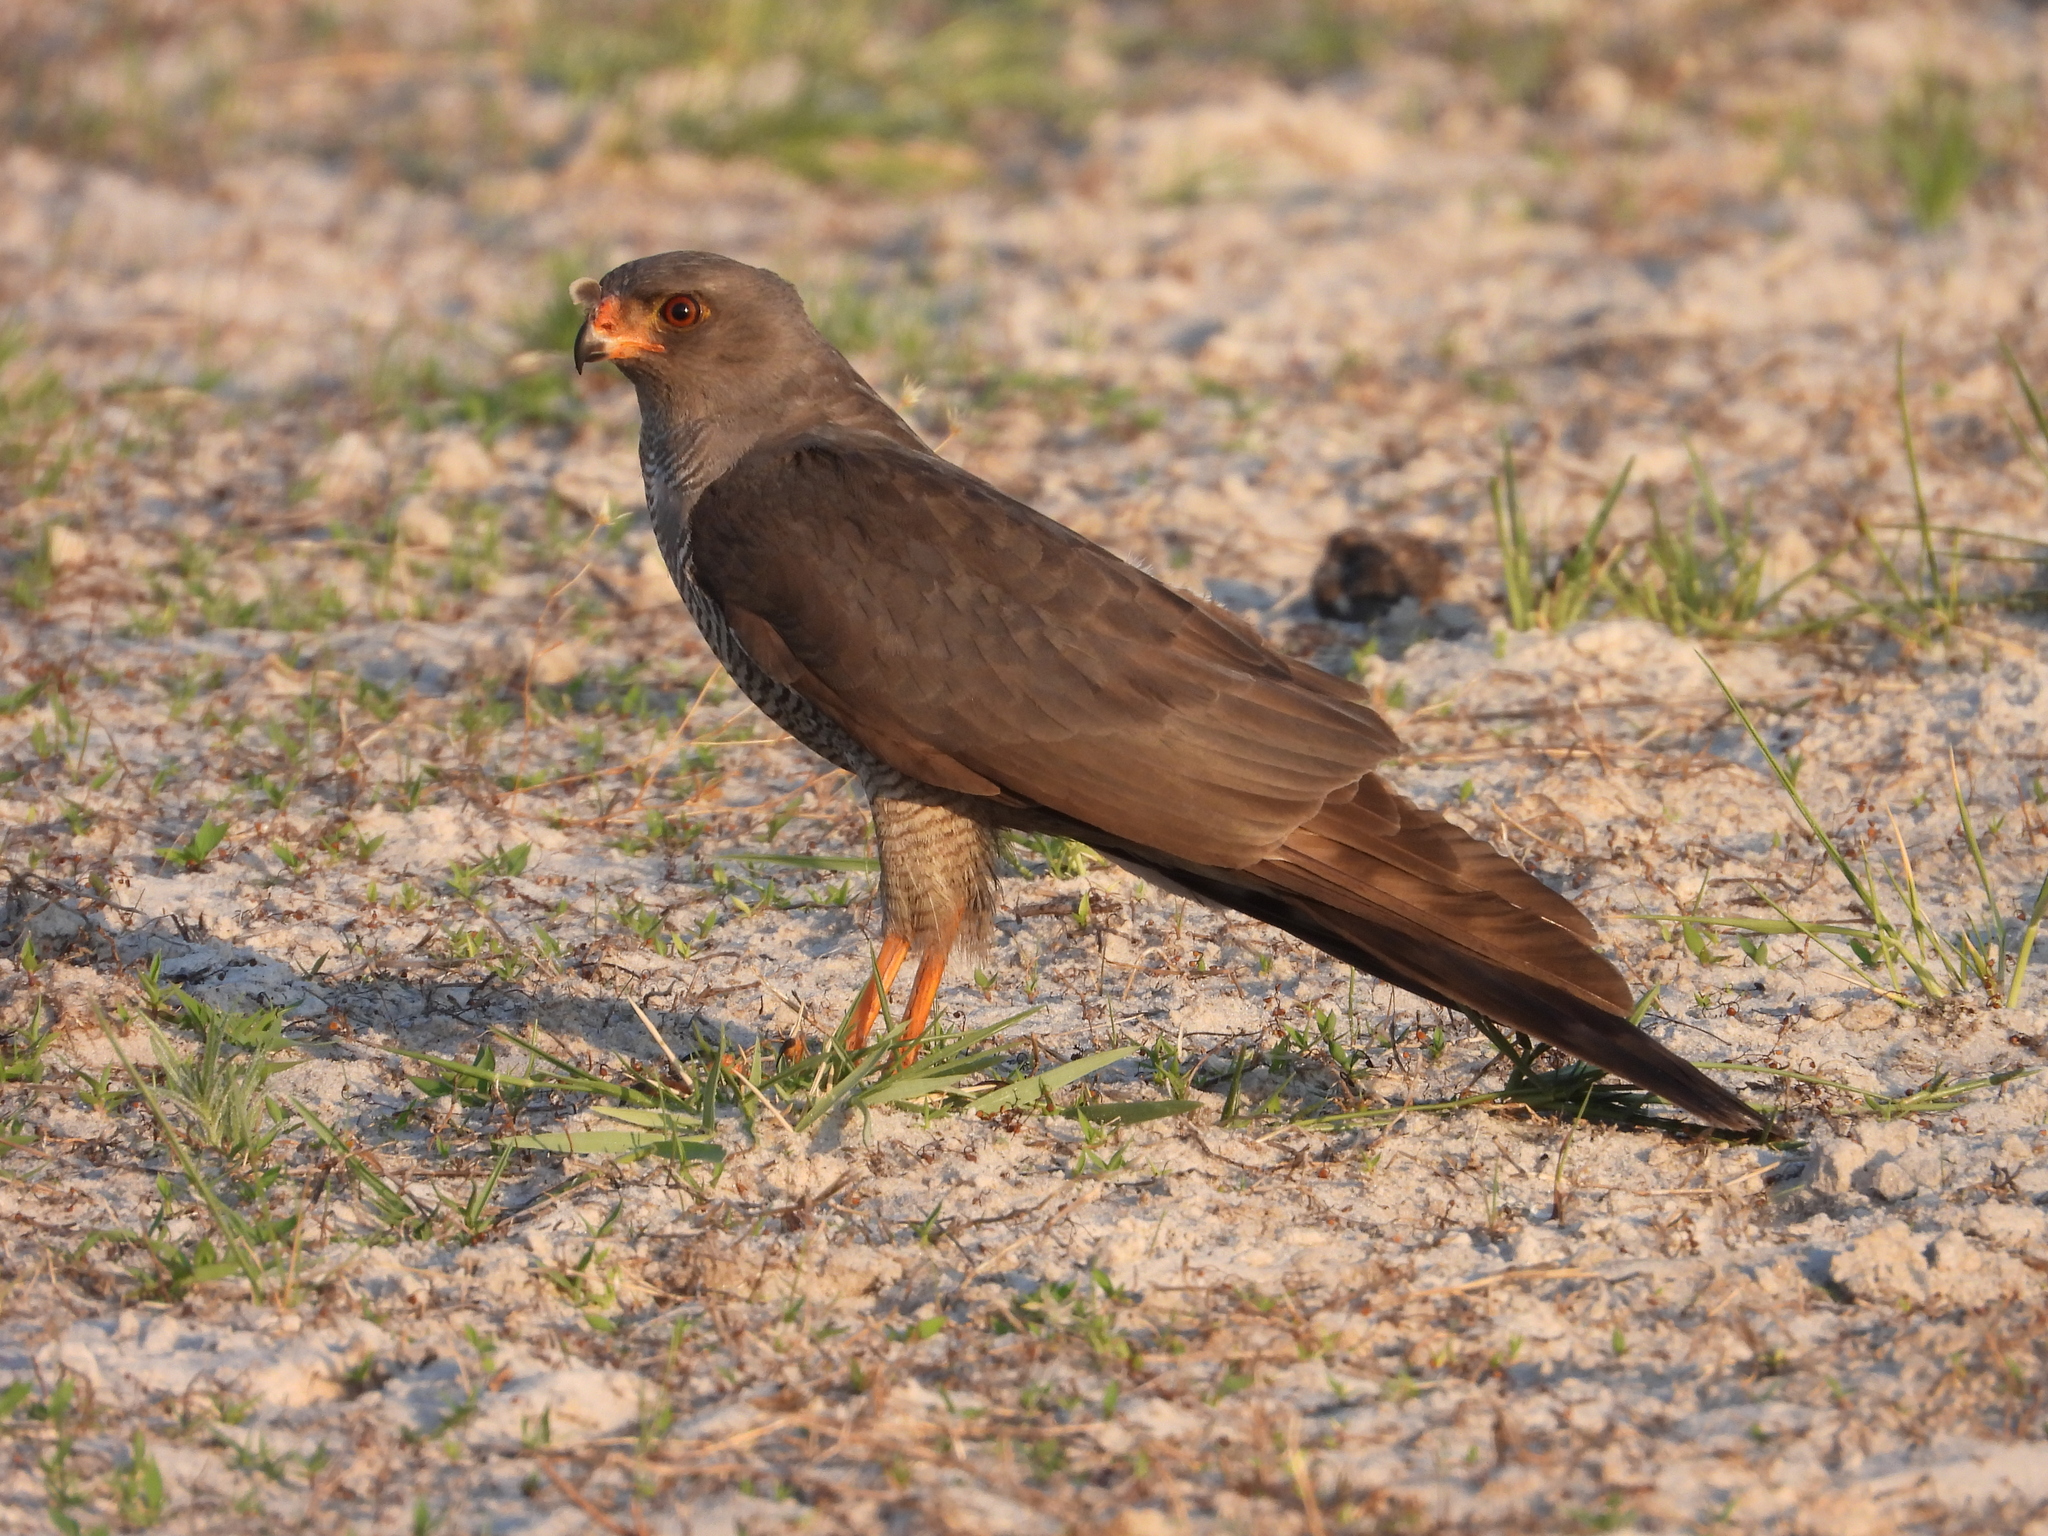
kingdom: Animalia
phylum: Chordata
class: Aves
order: Accipitriformes
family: Accipitridae
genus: Micronisus
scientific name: Micronisus gabar
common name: Gabar goshawk
